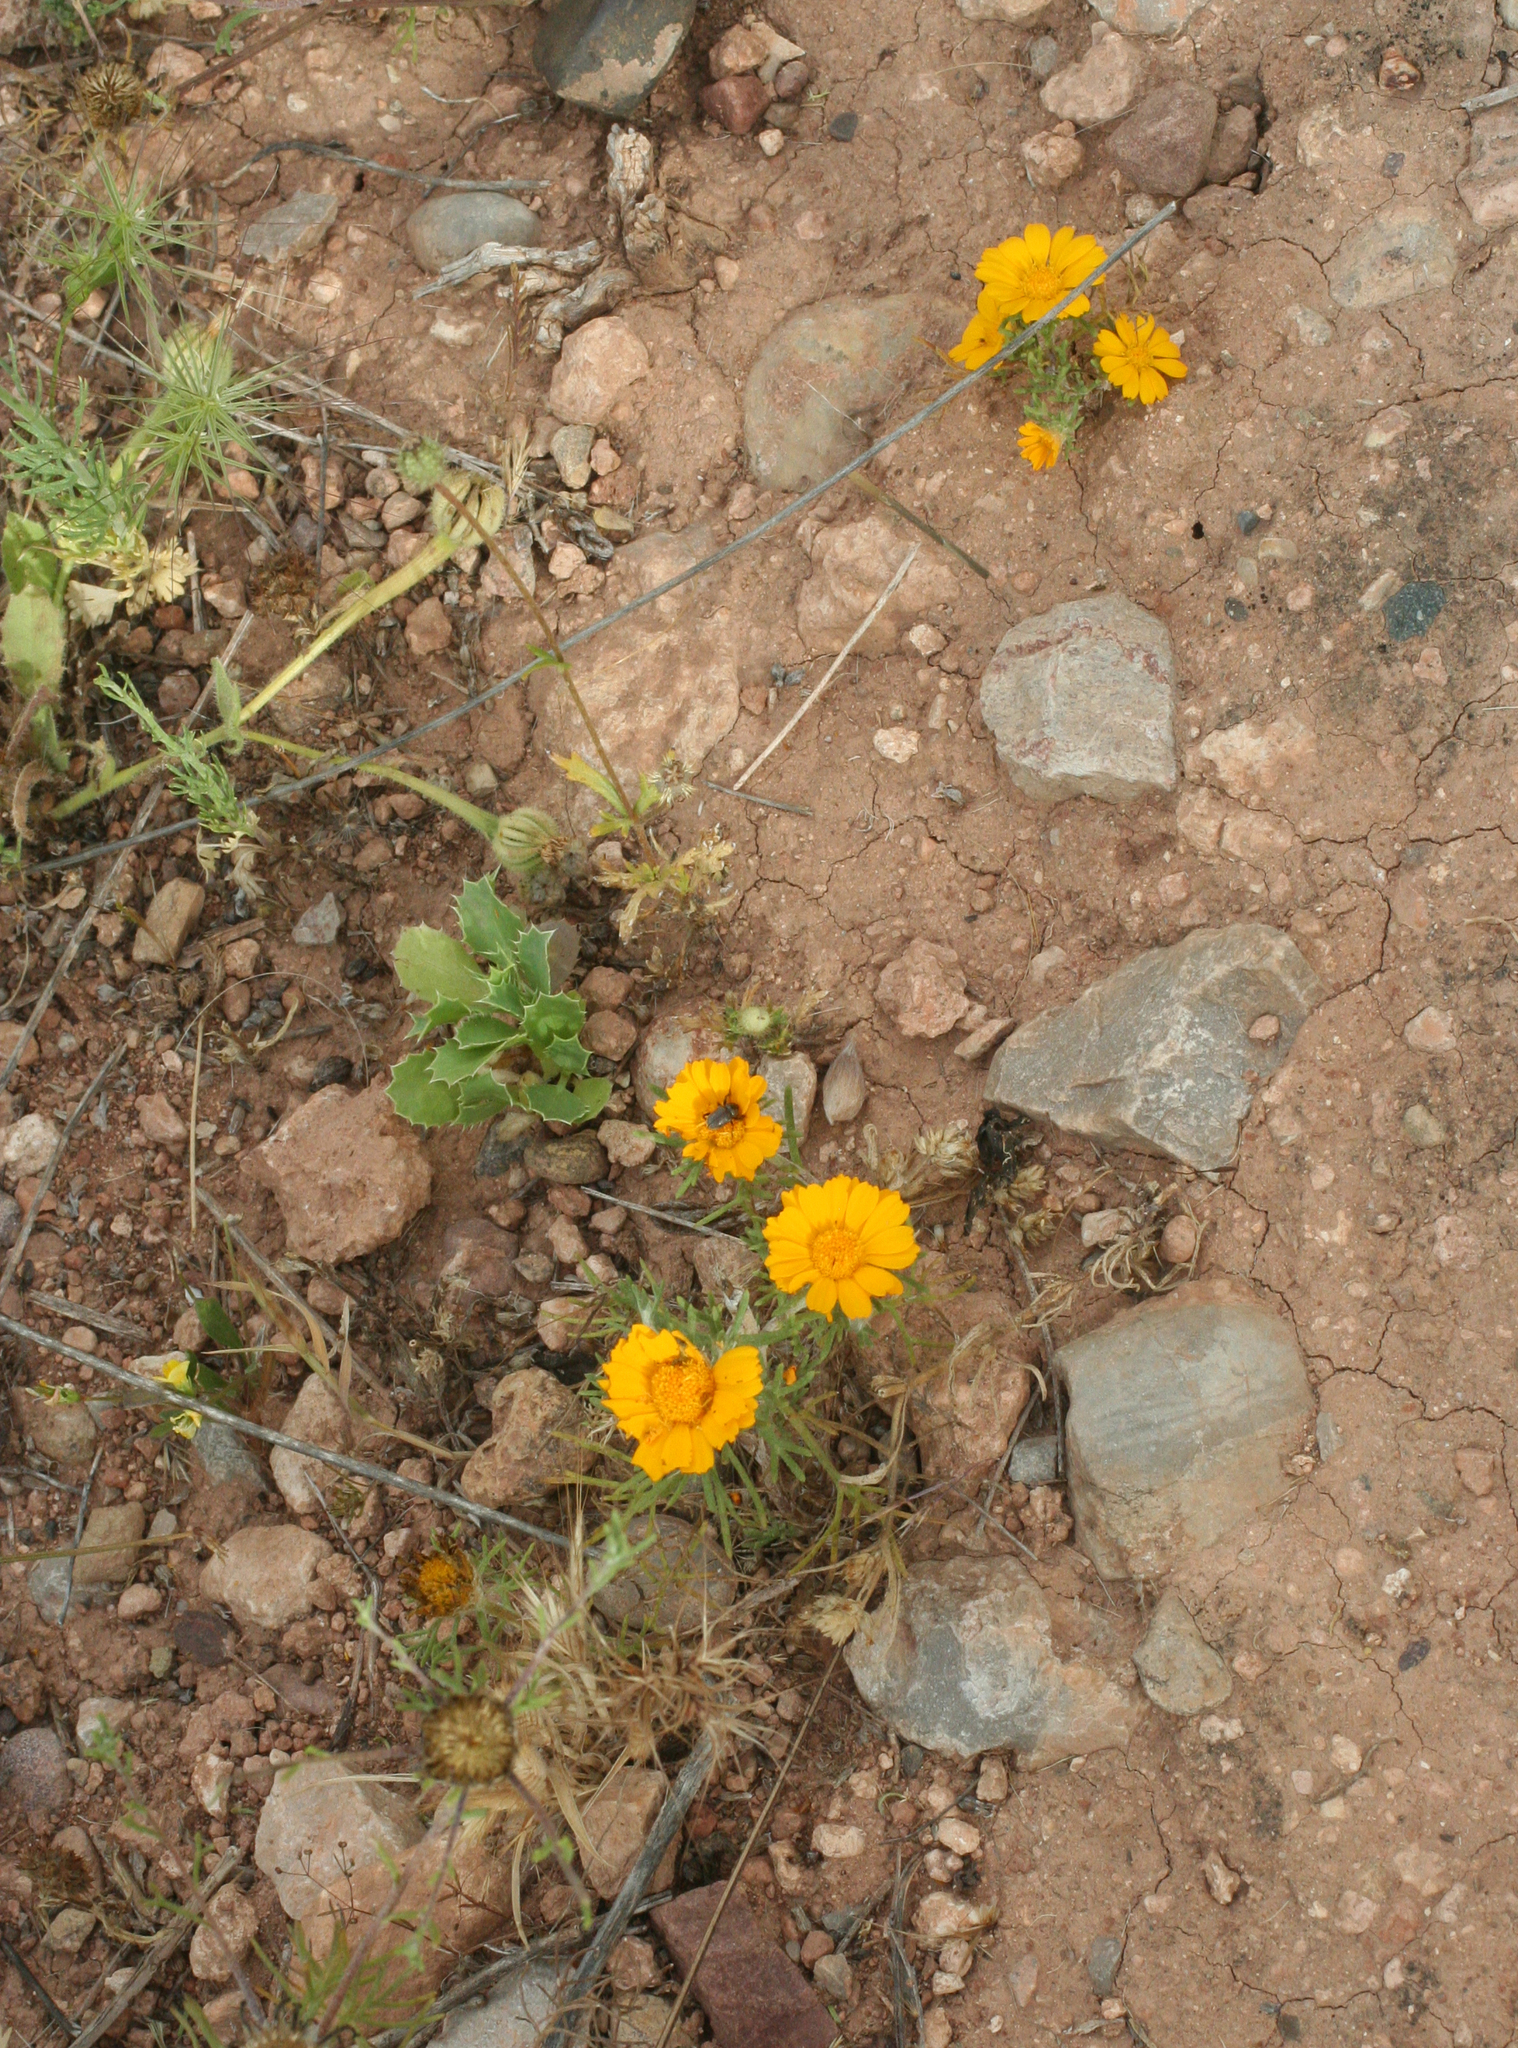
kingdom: Plantae
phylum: Tracheophyta
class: Magnoliopsida
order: Asterales
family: Asteraceae
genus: Cladanthus
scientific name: Cladanthus arabicus
